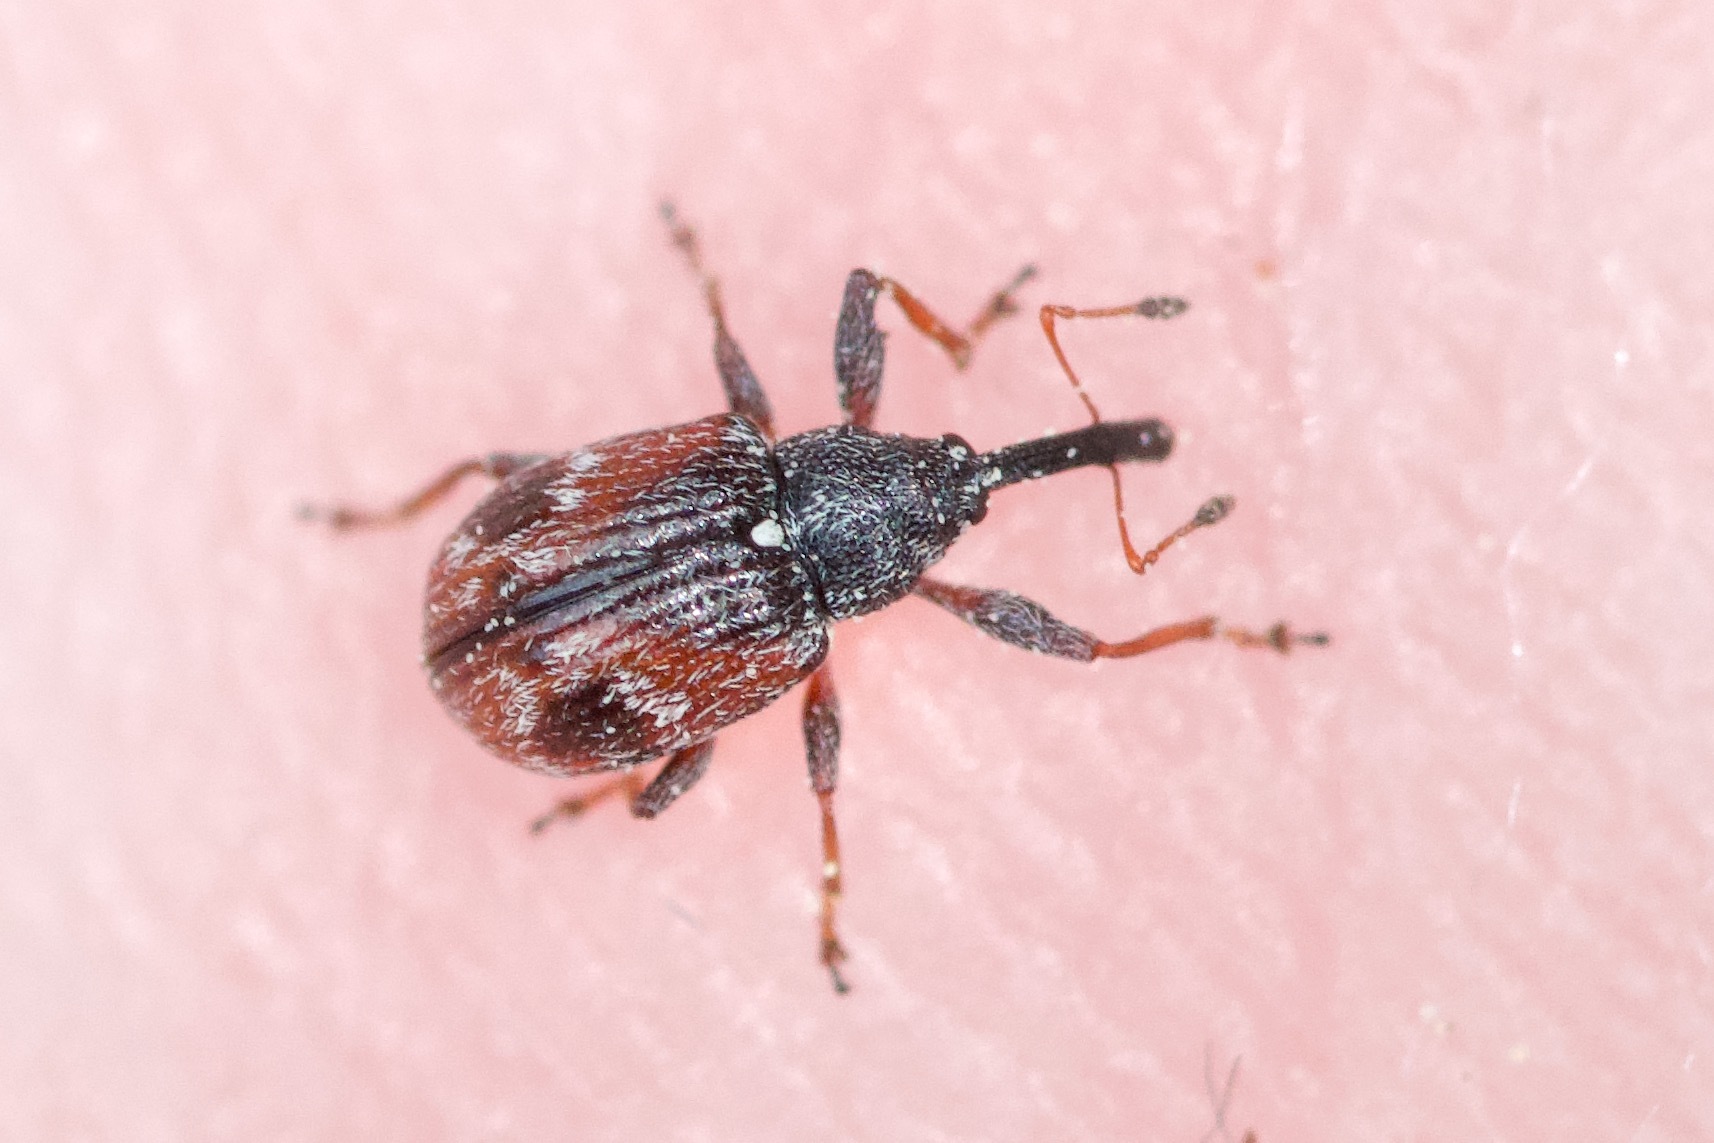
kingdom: Animalia
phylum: Arthropoda
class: Insecta
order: Coleoptera
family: Curculionidae
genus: Anthonomus
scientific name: Anthonomus signatus
